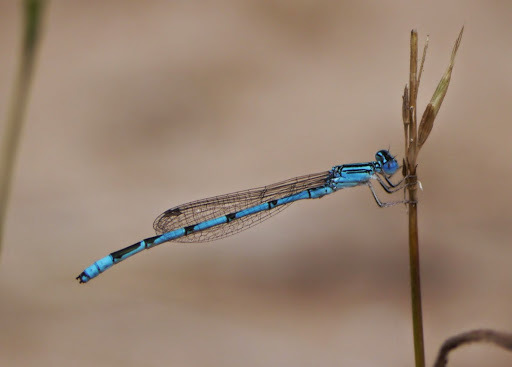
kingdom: Animalia
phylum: Arthropoda
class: Insecta
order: Odonata
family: Coenagrionidae
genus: Enallagma
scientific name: Enallagma basidens
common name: Double-striped bluet
